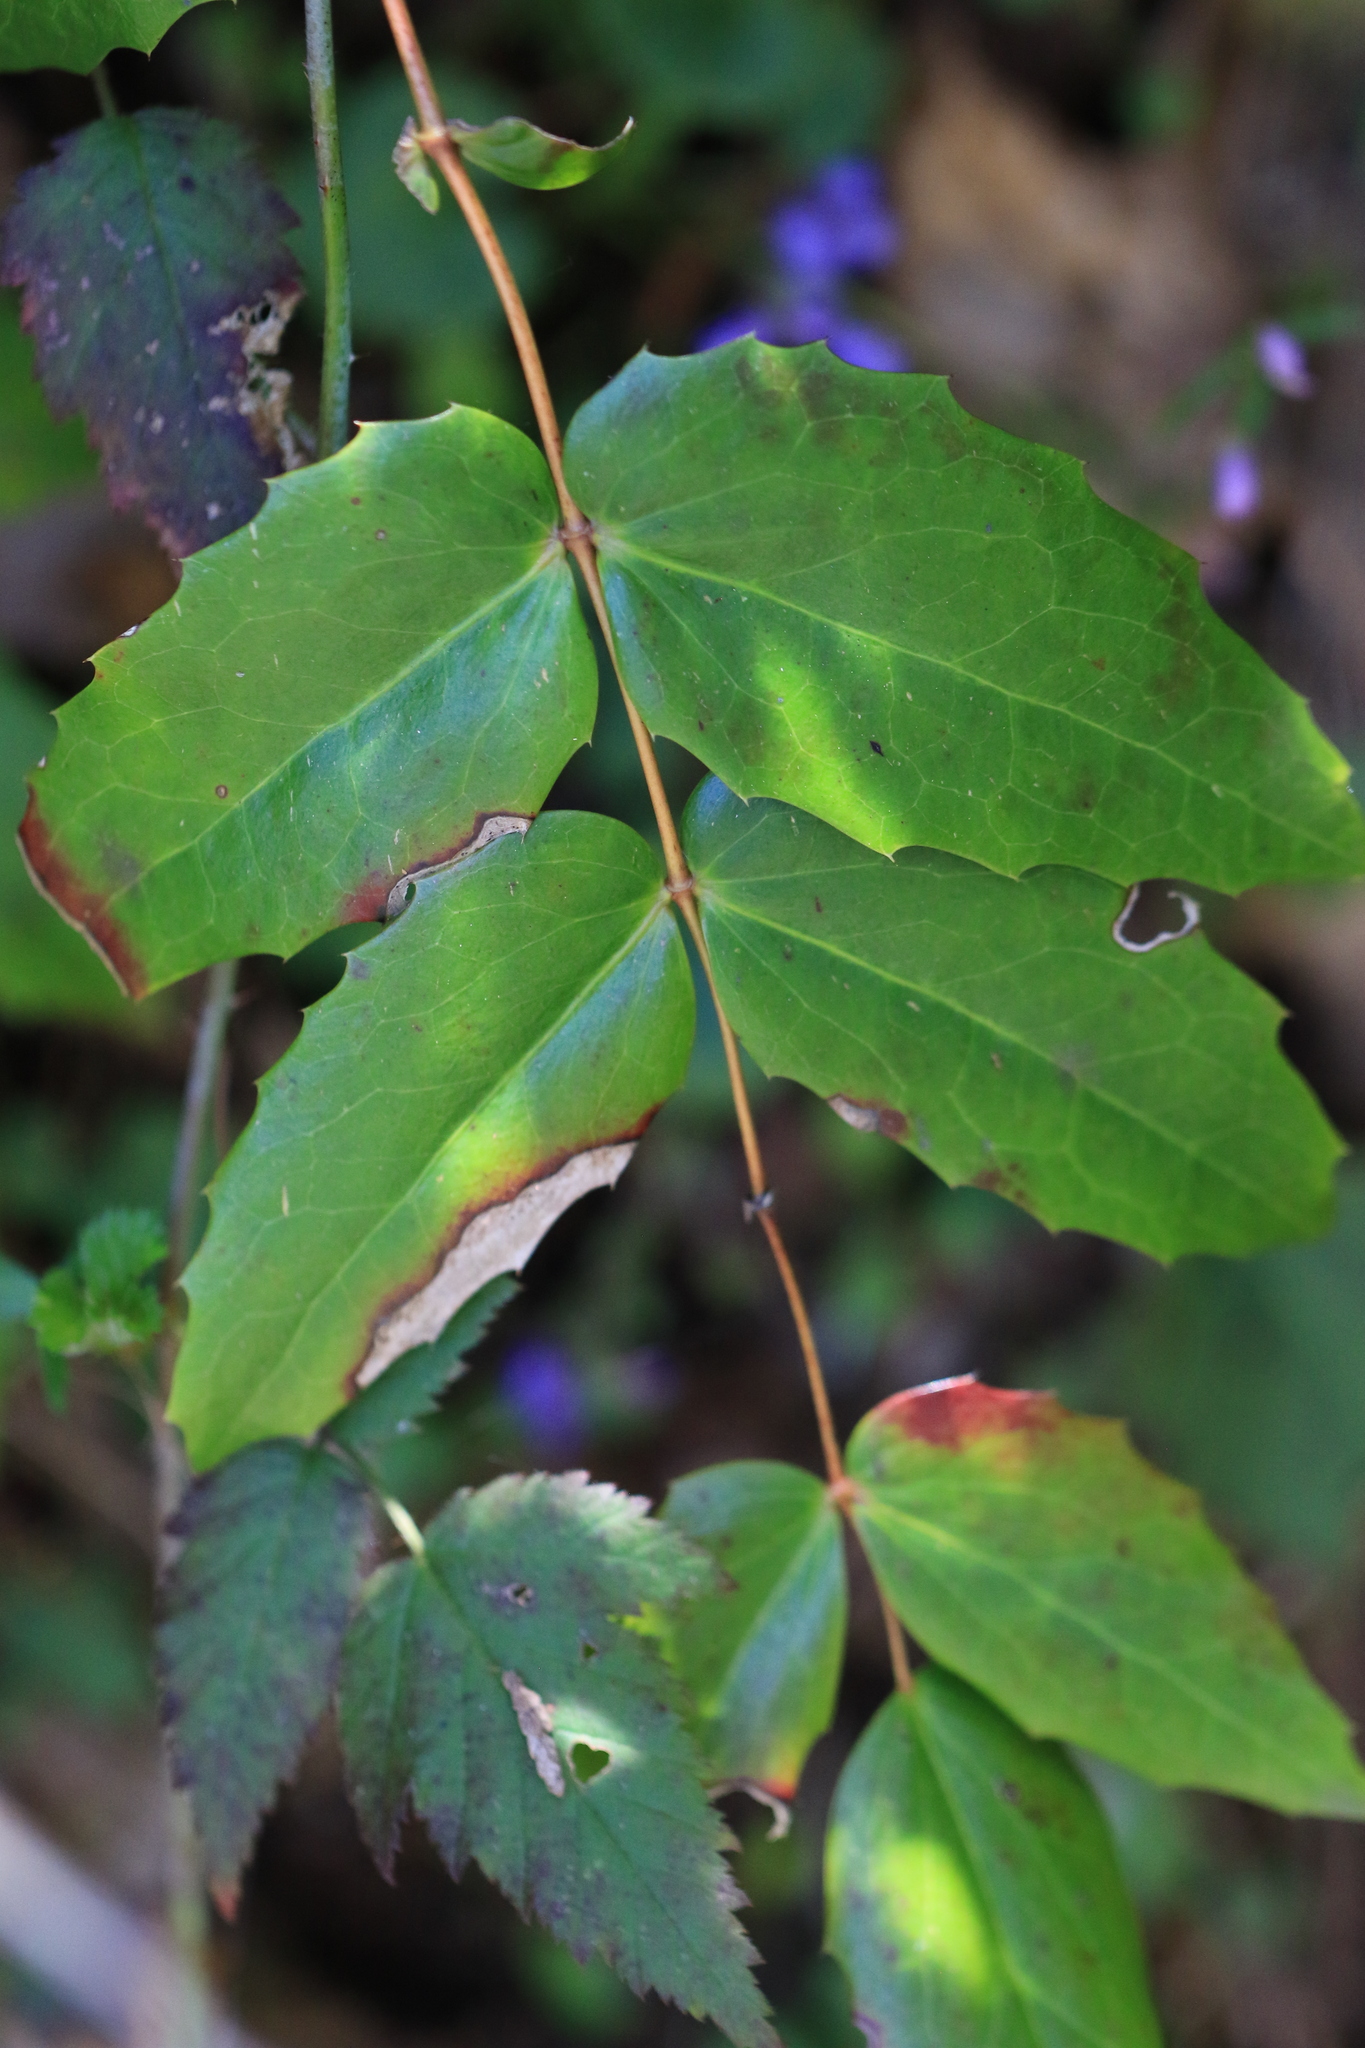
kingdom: Plantae
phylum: Tracheophyta
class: Magnoliopsida
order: Ranunculales
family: Berberidaceae
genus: Mahonia
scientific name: Mahonia nervosa
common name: Cascade oregon-grape
